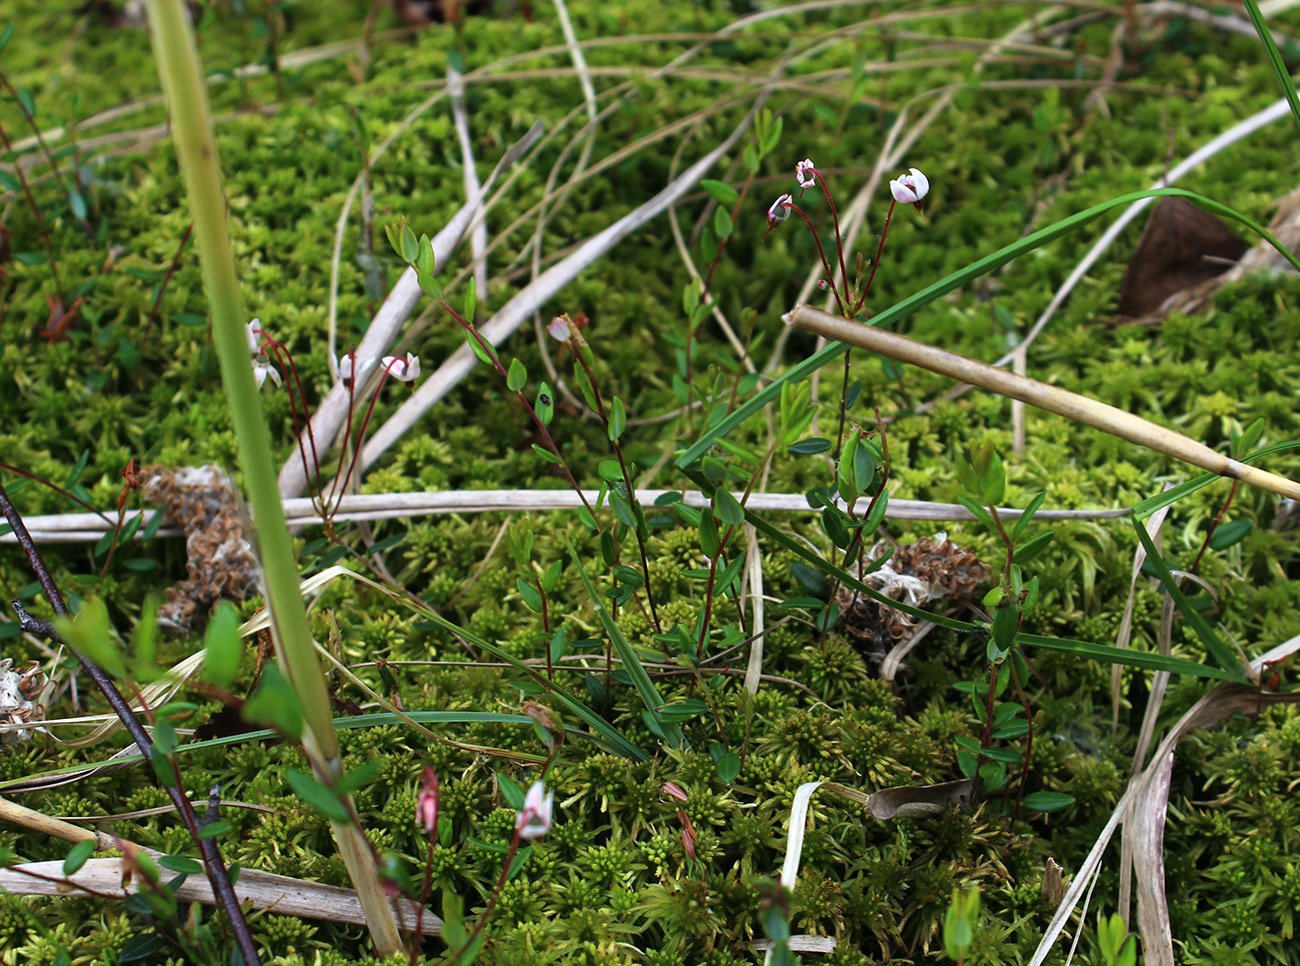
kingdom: Plantae
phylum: Tracheophyta
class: Magnoliopsida
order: Ericales
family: Ericaceae
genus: Vaccinium
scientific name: Vaccinium oxycoccos
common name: Cranberry
